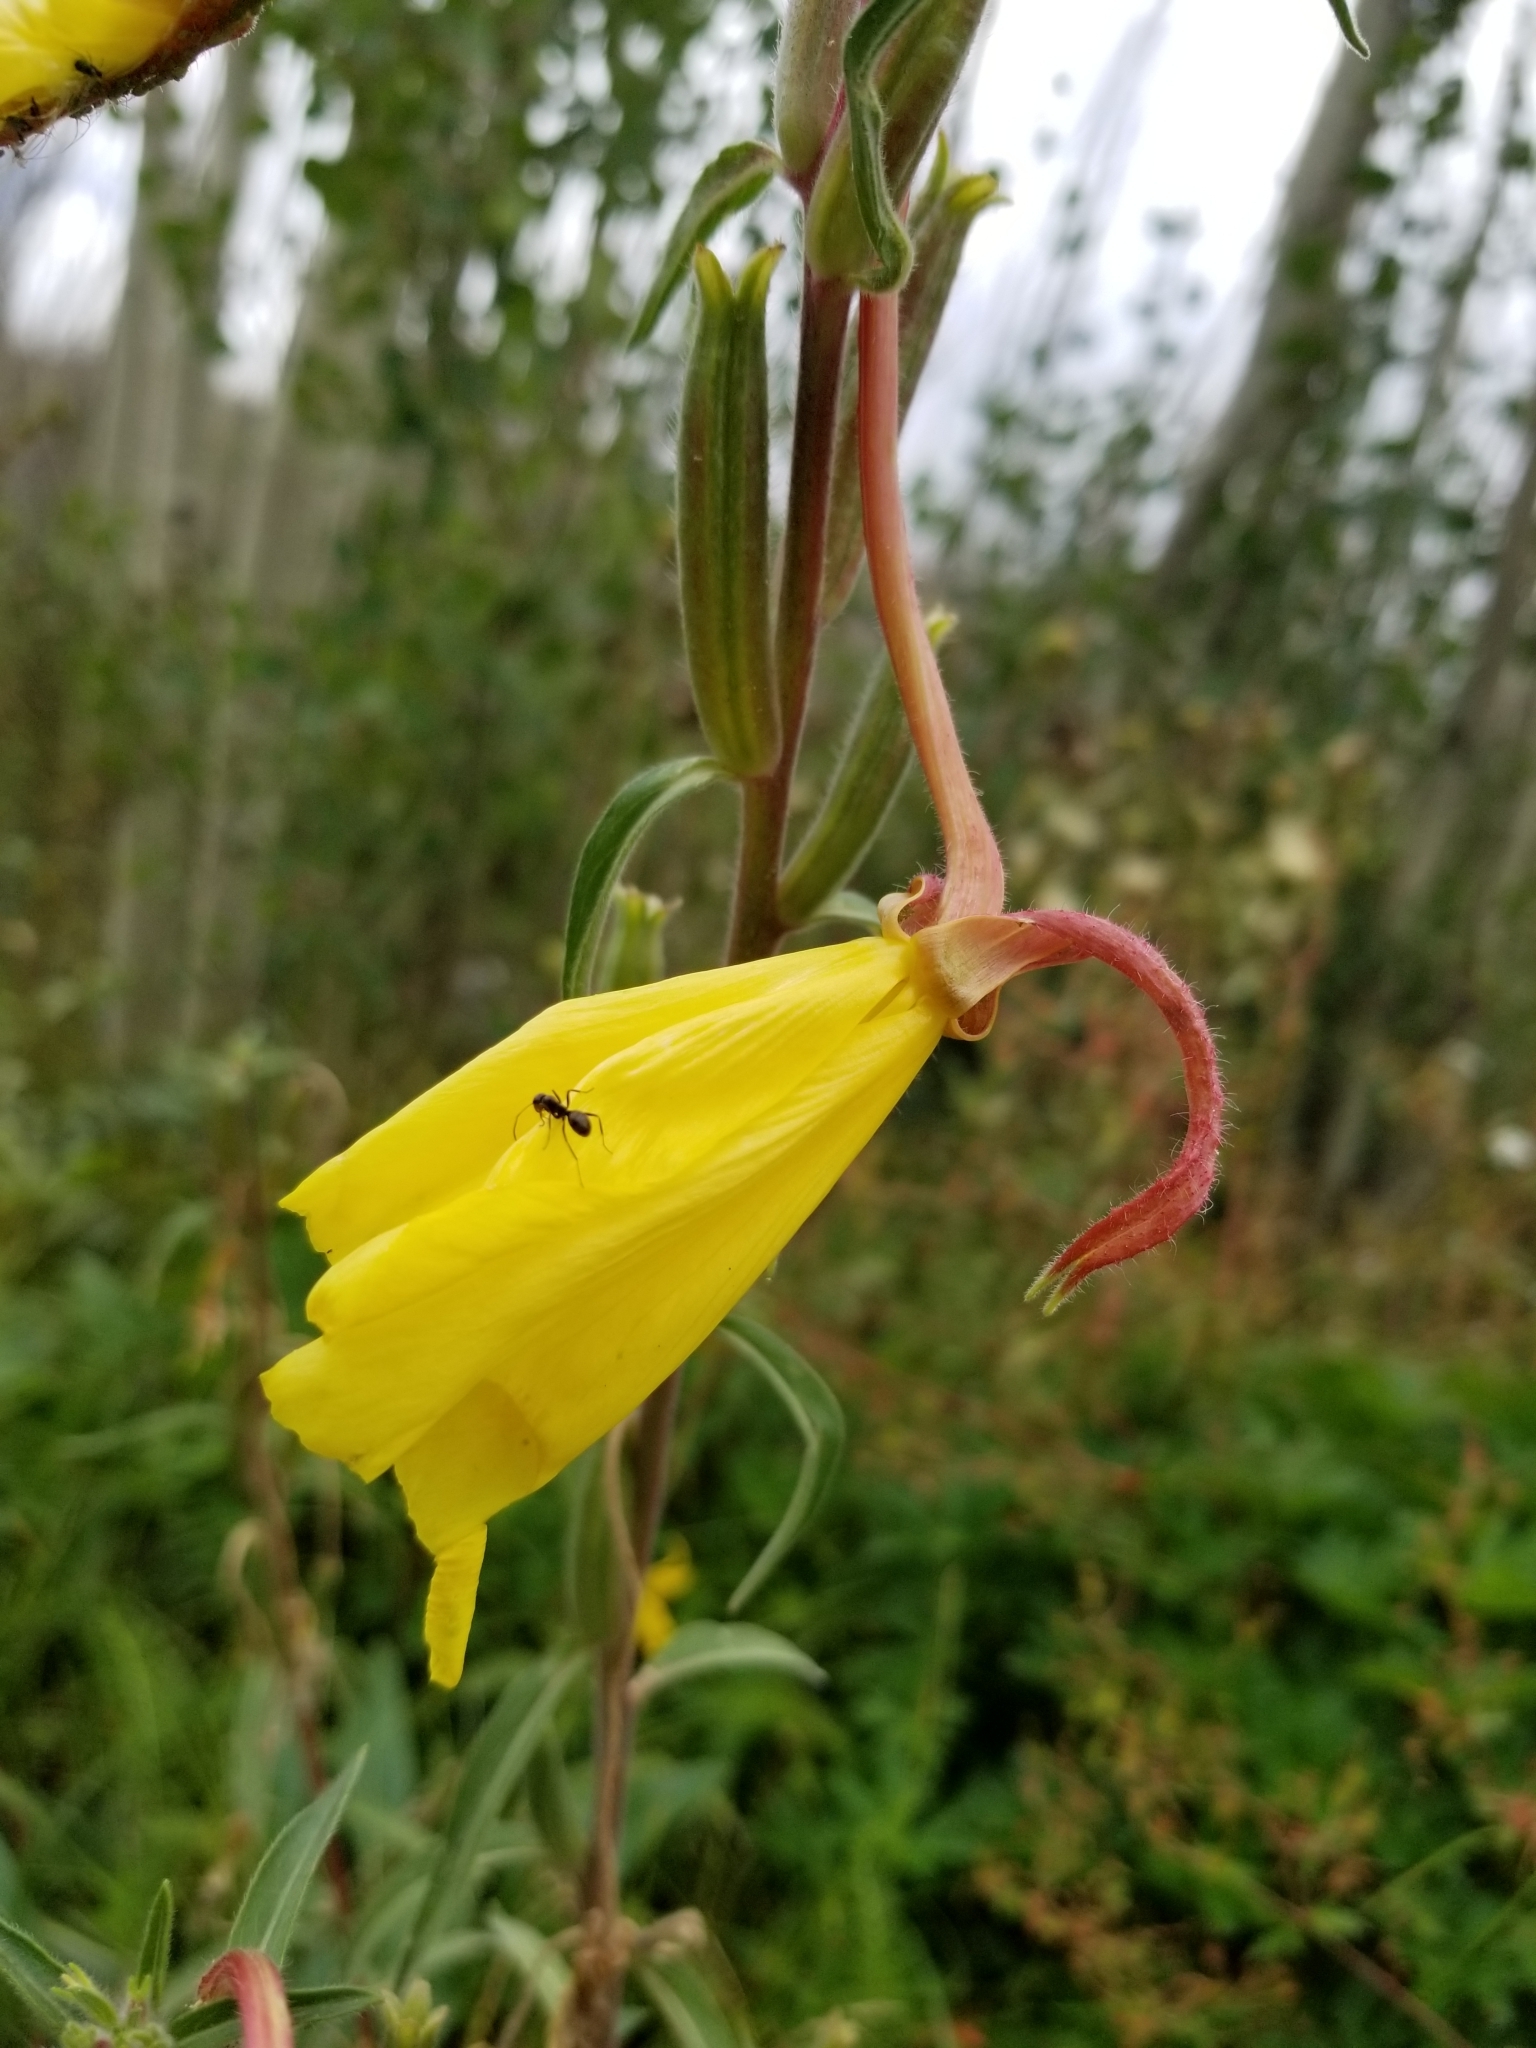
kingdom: Plantae
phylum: Tracheophyta
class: Magnoliopsida
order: Myrtales
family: Onagraceae
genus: Oenothera
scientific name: Oenothera elata
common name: Hooker's evening-primrose
